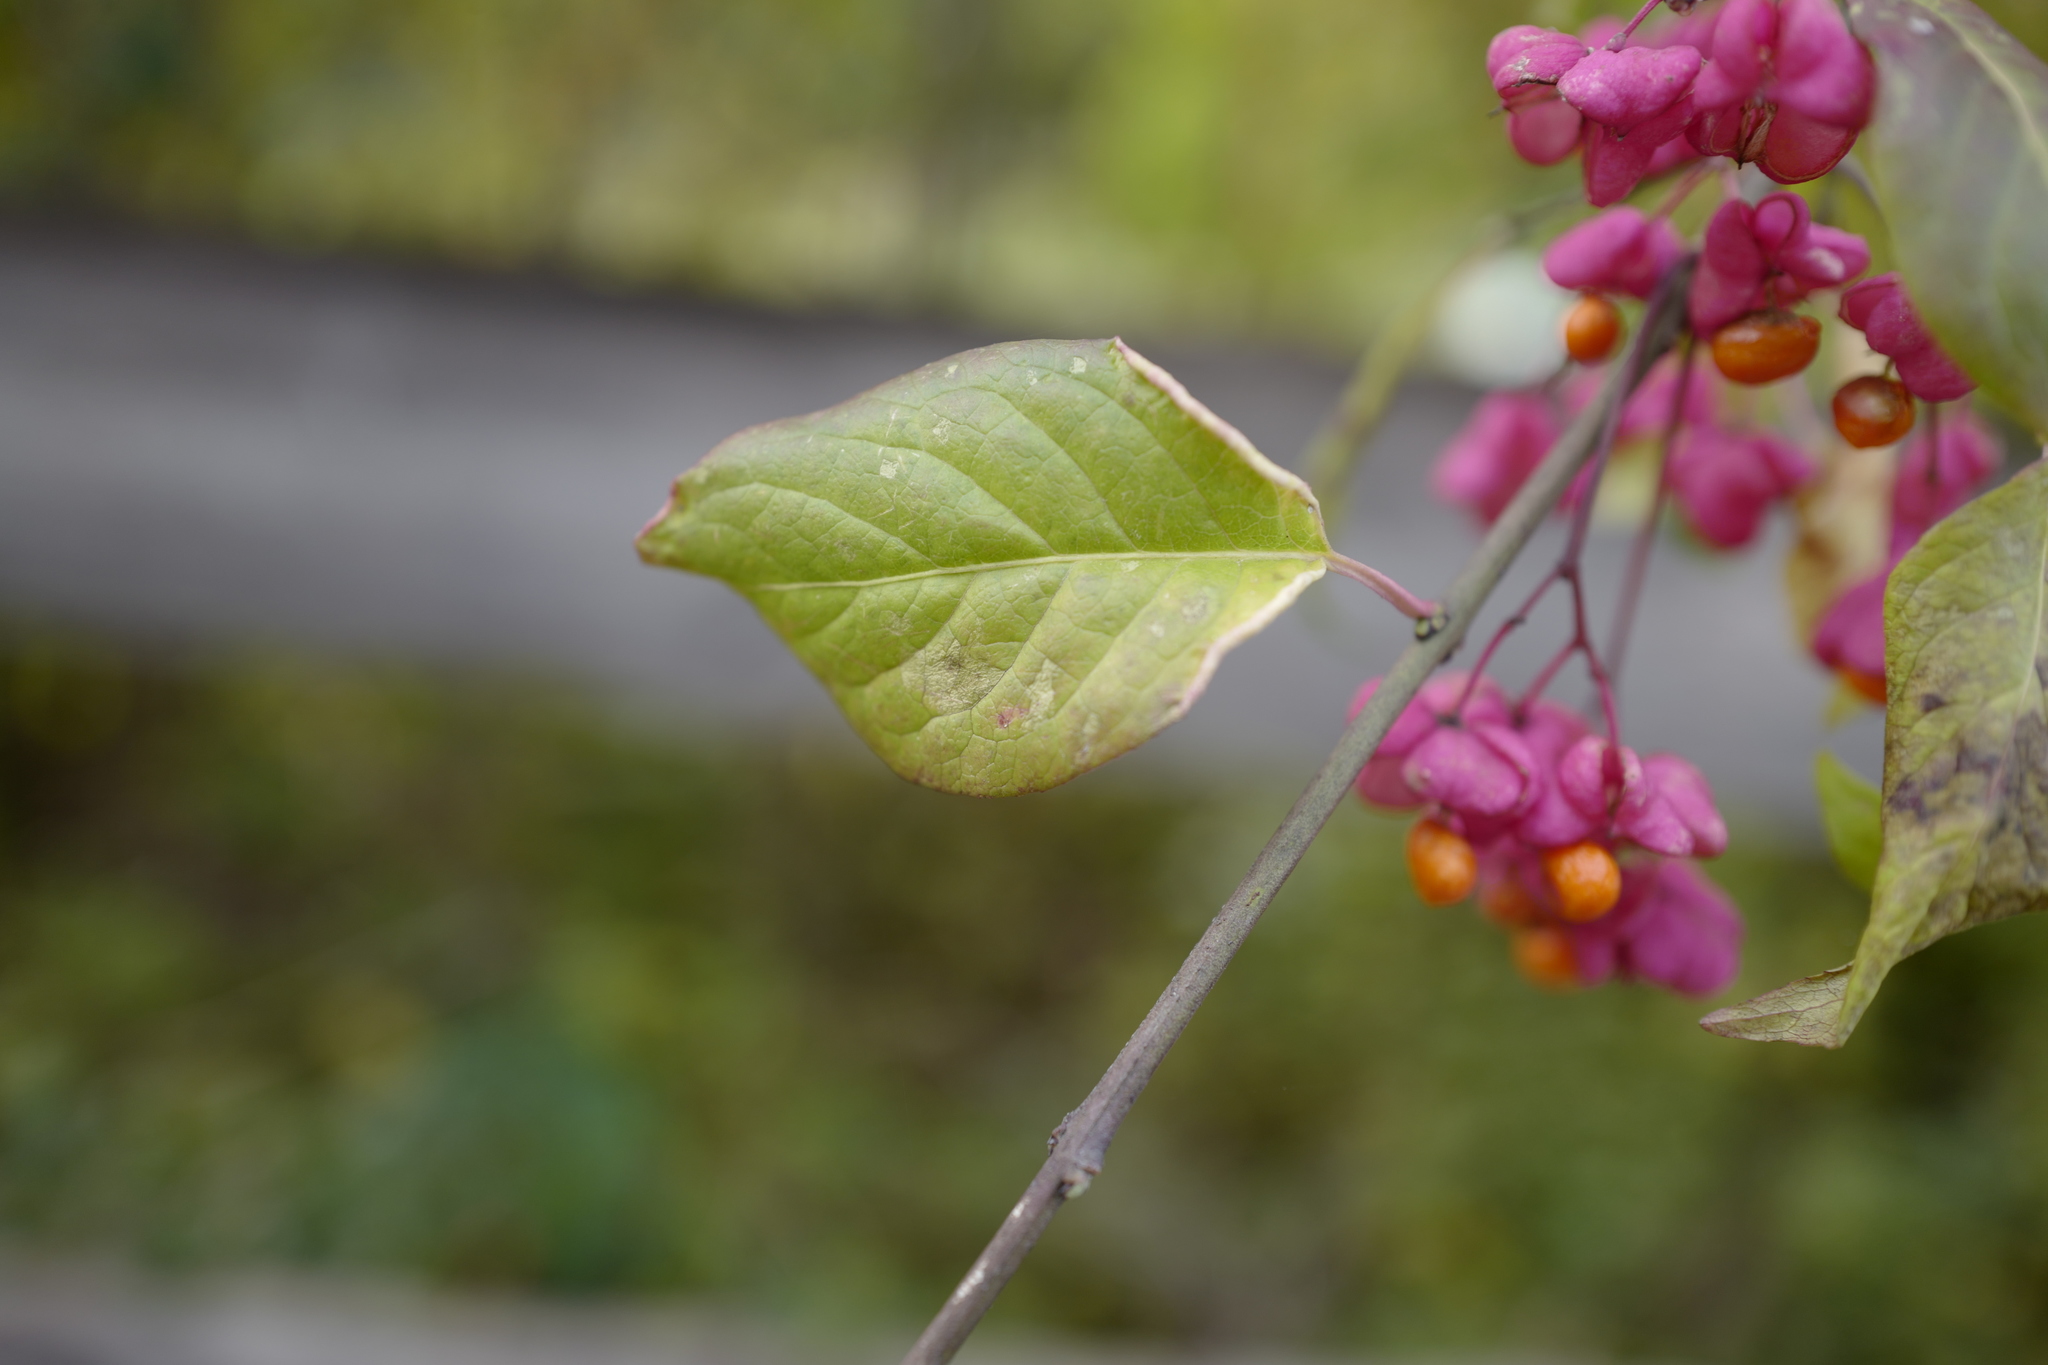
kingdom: Plantae
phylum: Tracheophyta
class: Magnoliopsida
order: Celastrales
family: Celastraceae
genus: Euonymus
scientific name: Euonymus europaeus
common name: Spindle
